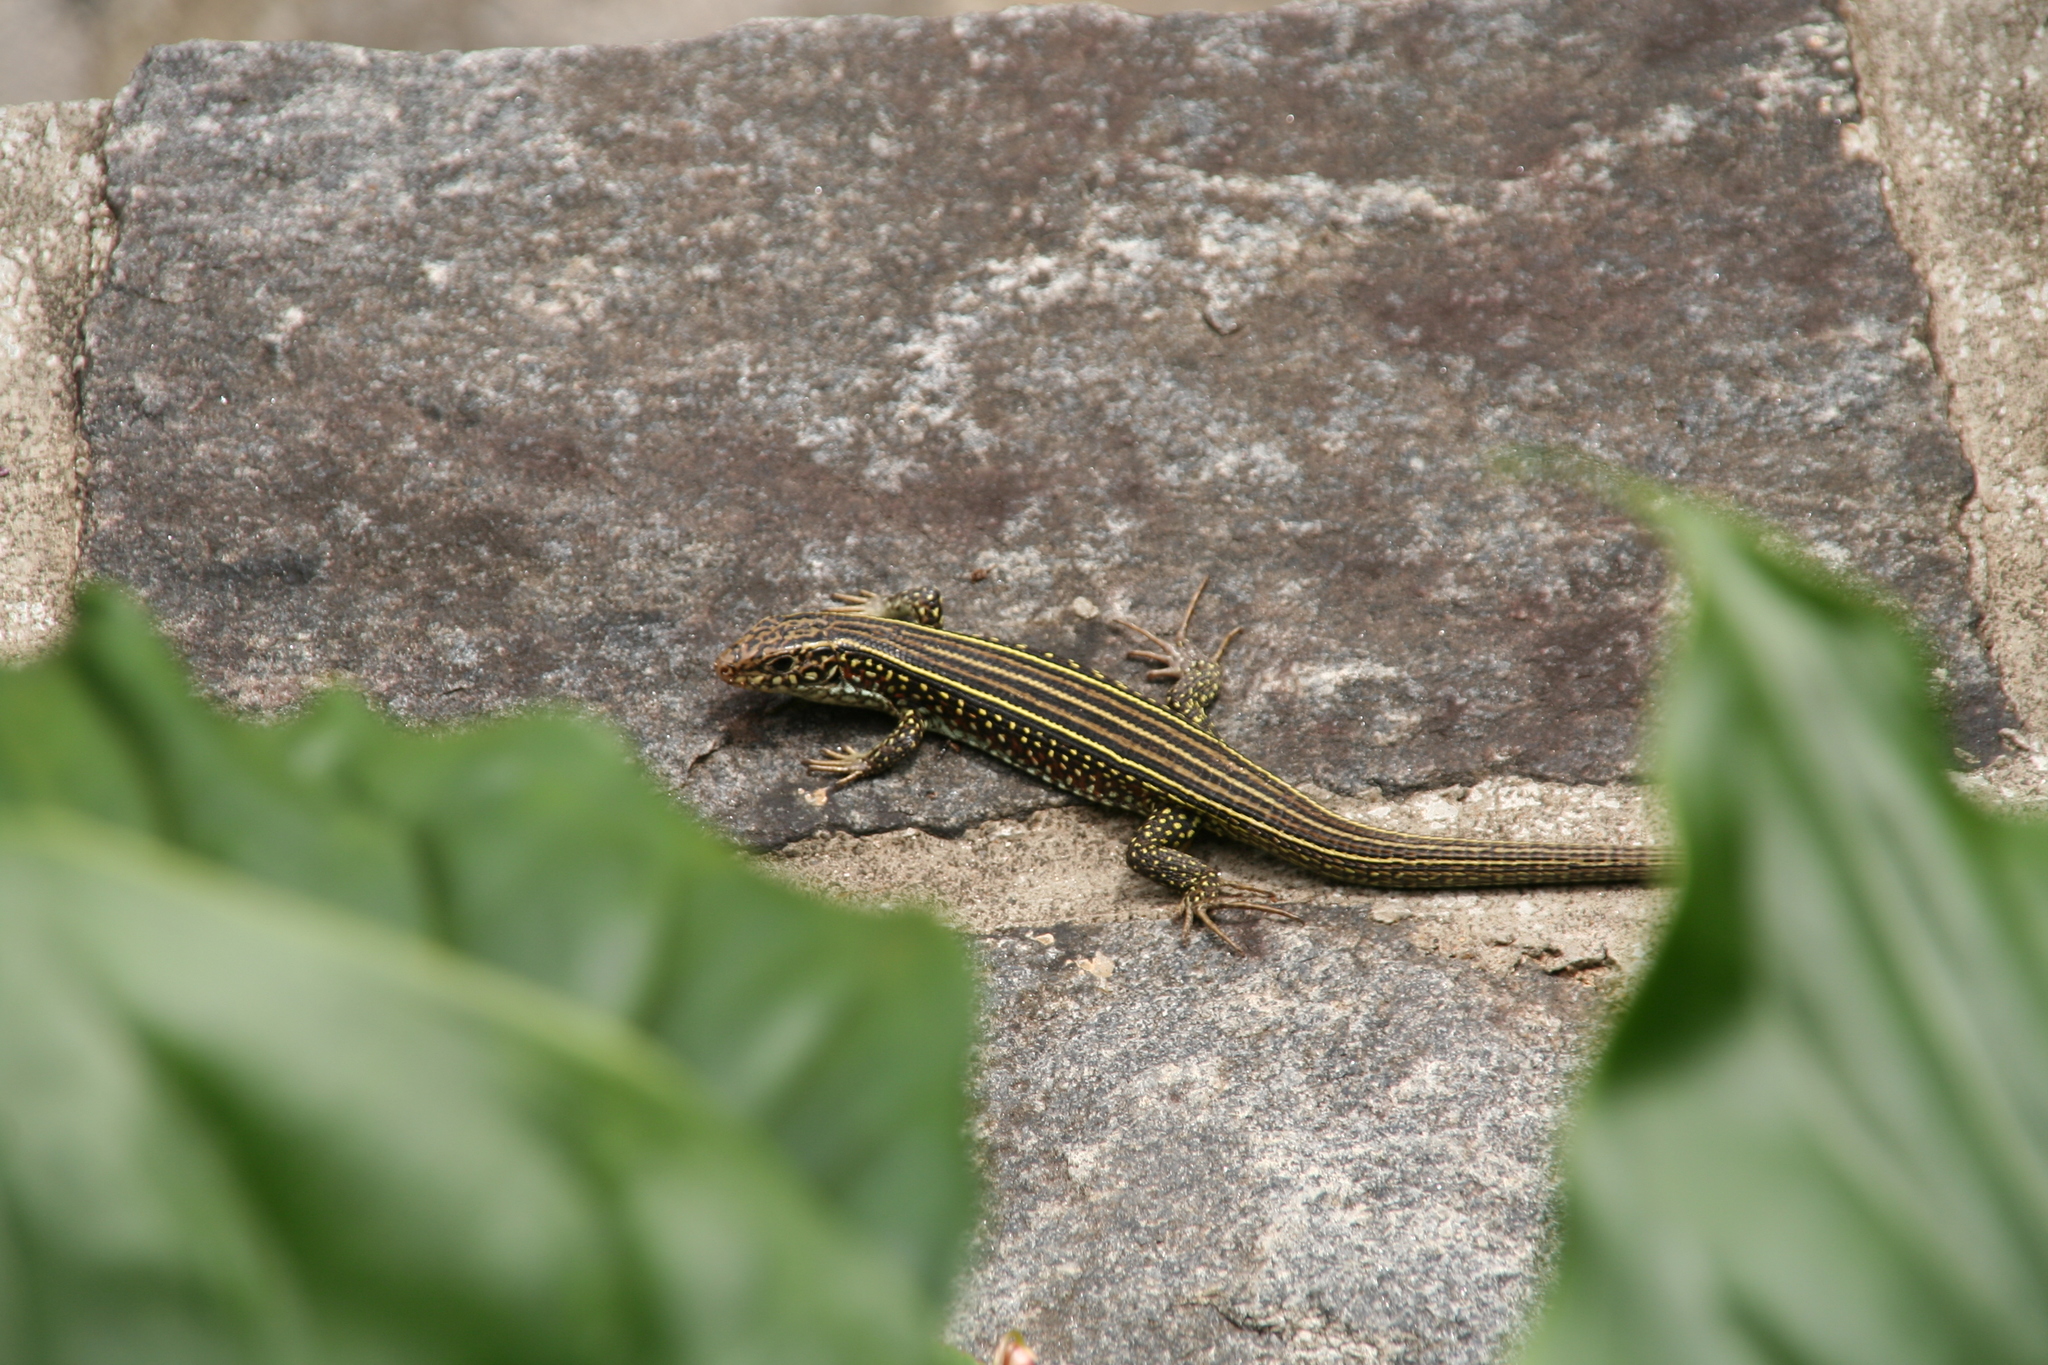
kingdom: Animalia
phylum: Chordata
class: Squamata
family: Gerrhosauridae
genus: Zonosaurus
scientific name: Zonosaurus ornatus
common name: Ornate girdled lizard
